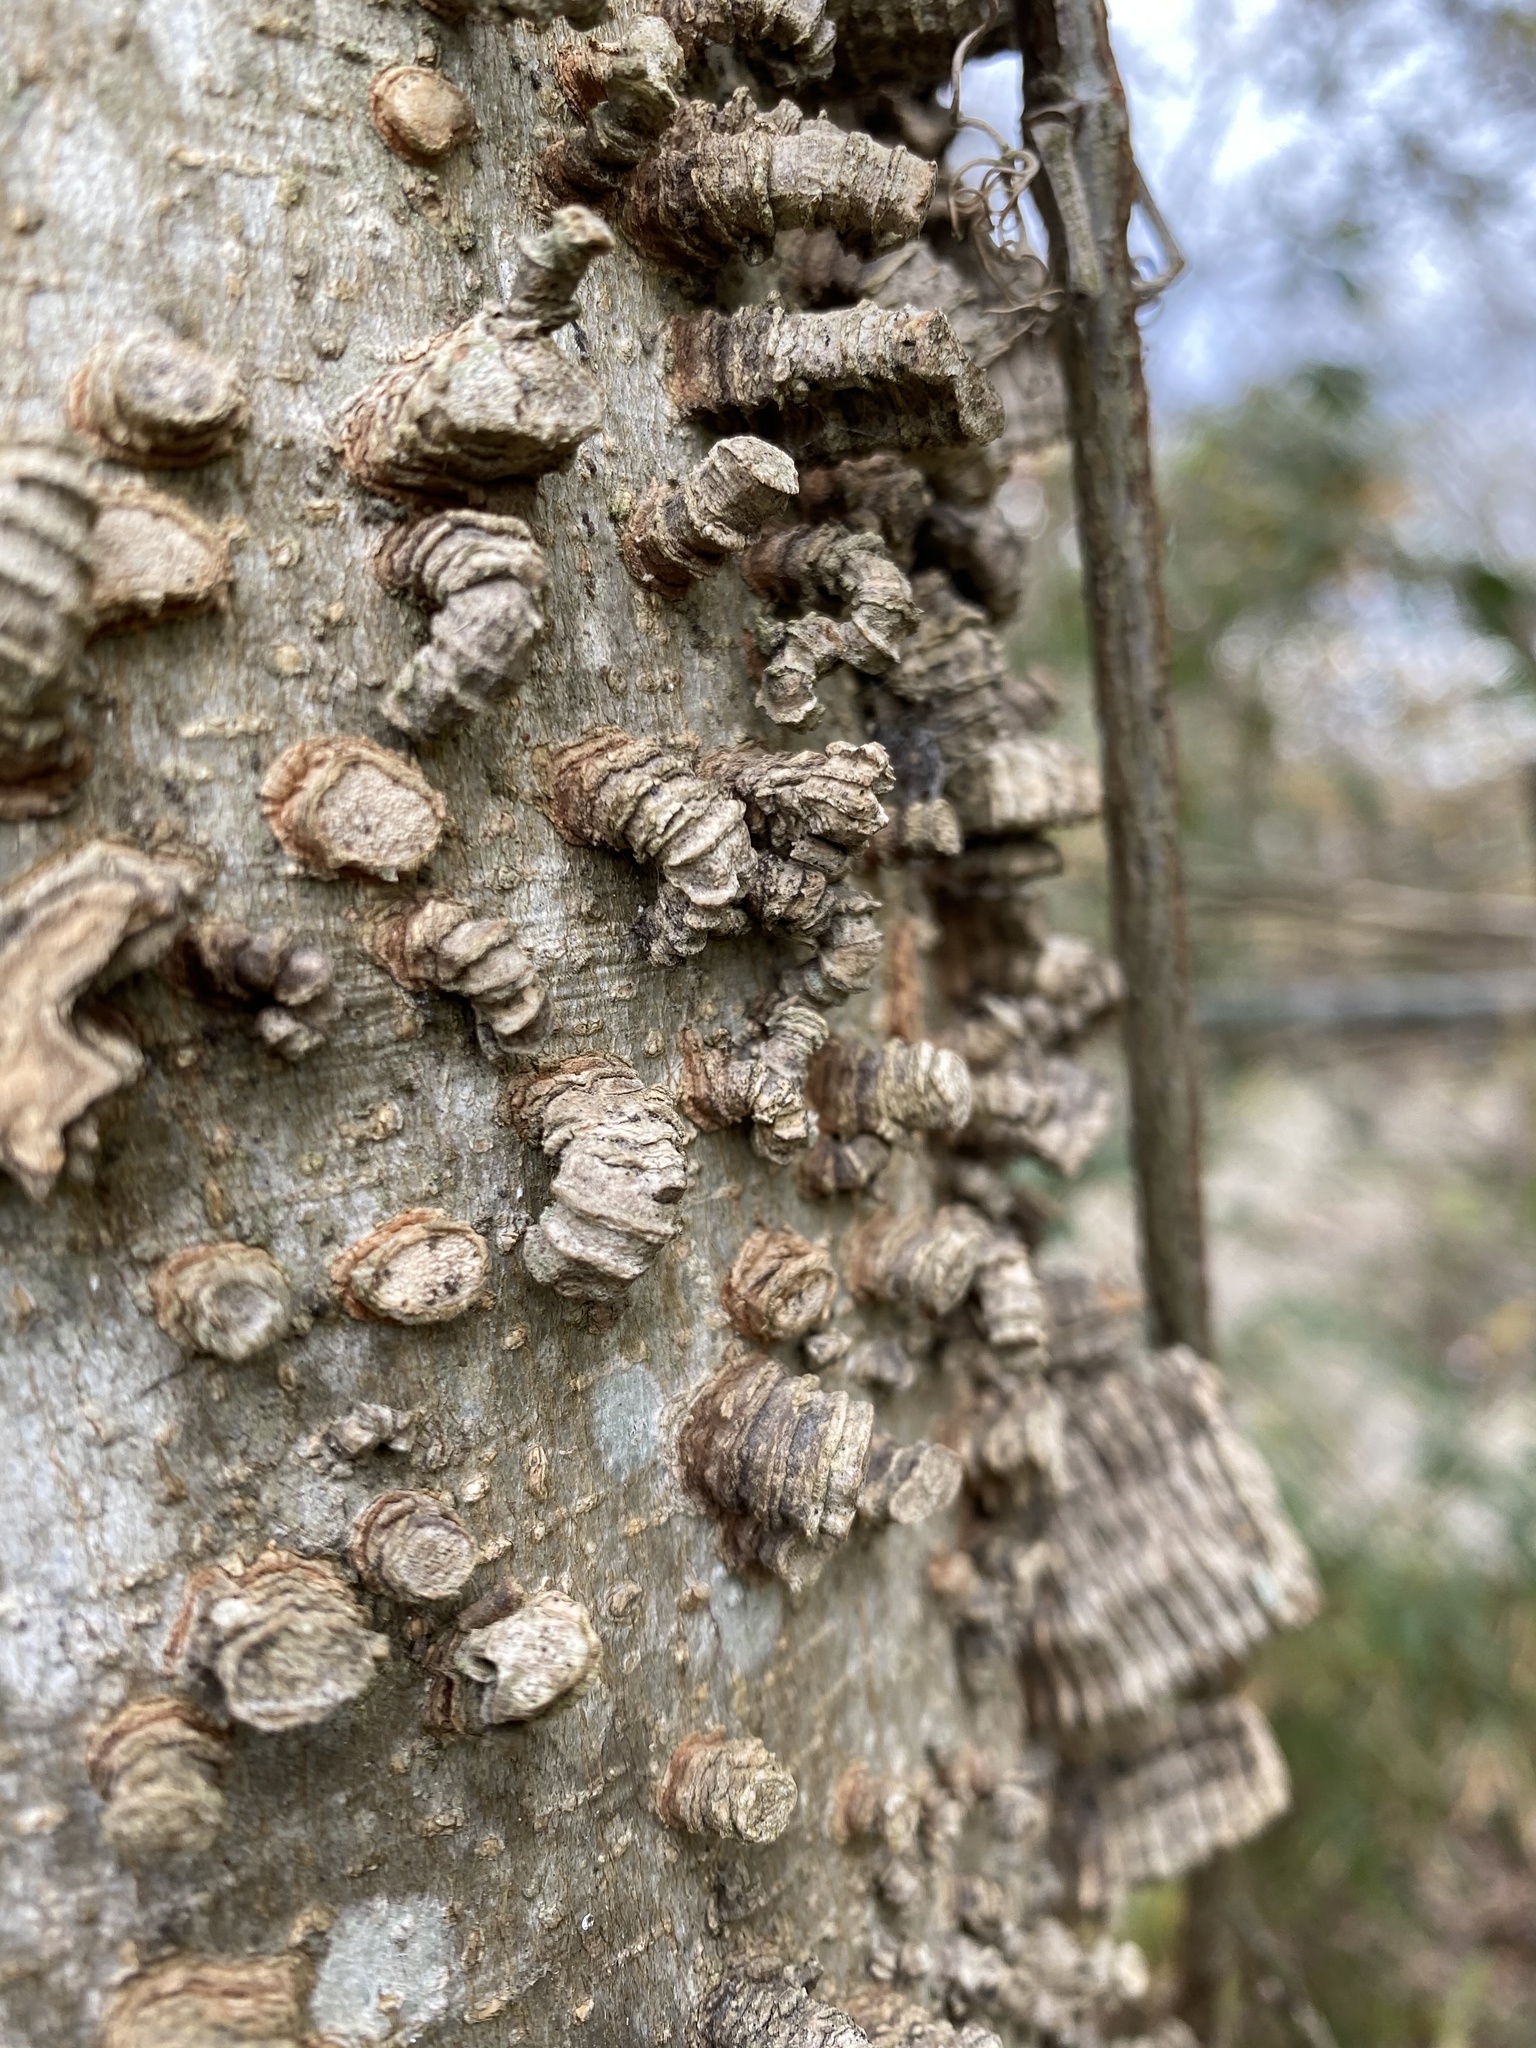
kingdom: Plantae
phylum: Tracheophyta
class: Magnoliopsida
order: Rosales
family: Cannabaceae
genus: Celtis
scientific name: Celtis occidentalis
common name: Common hackberry
